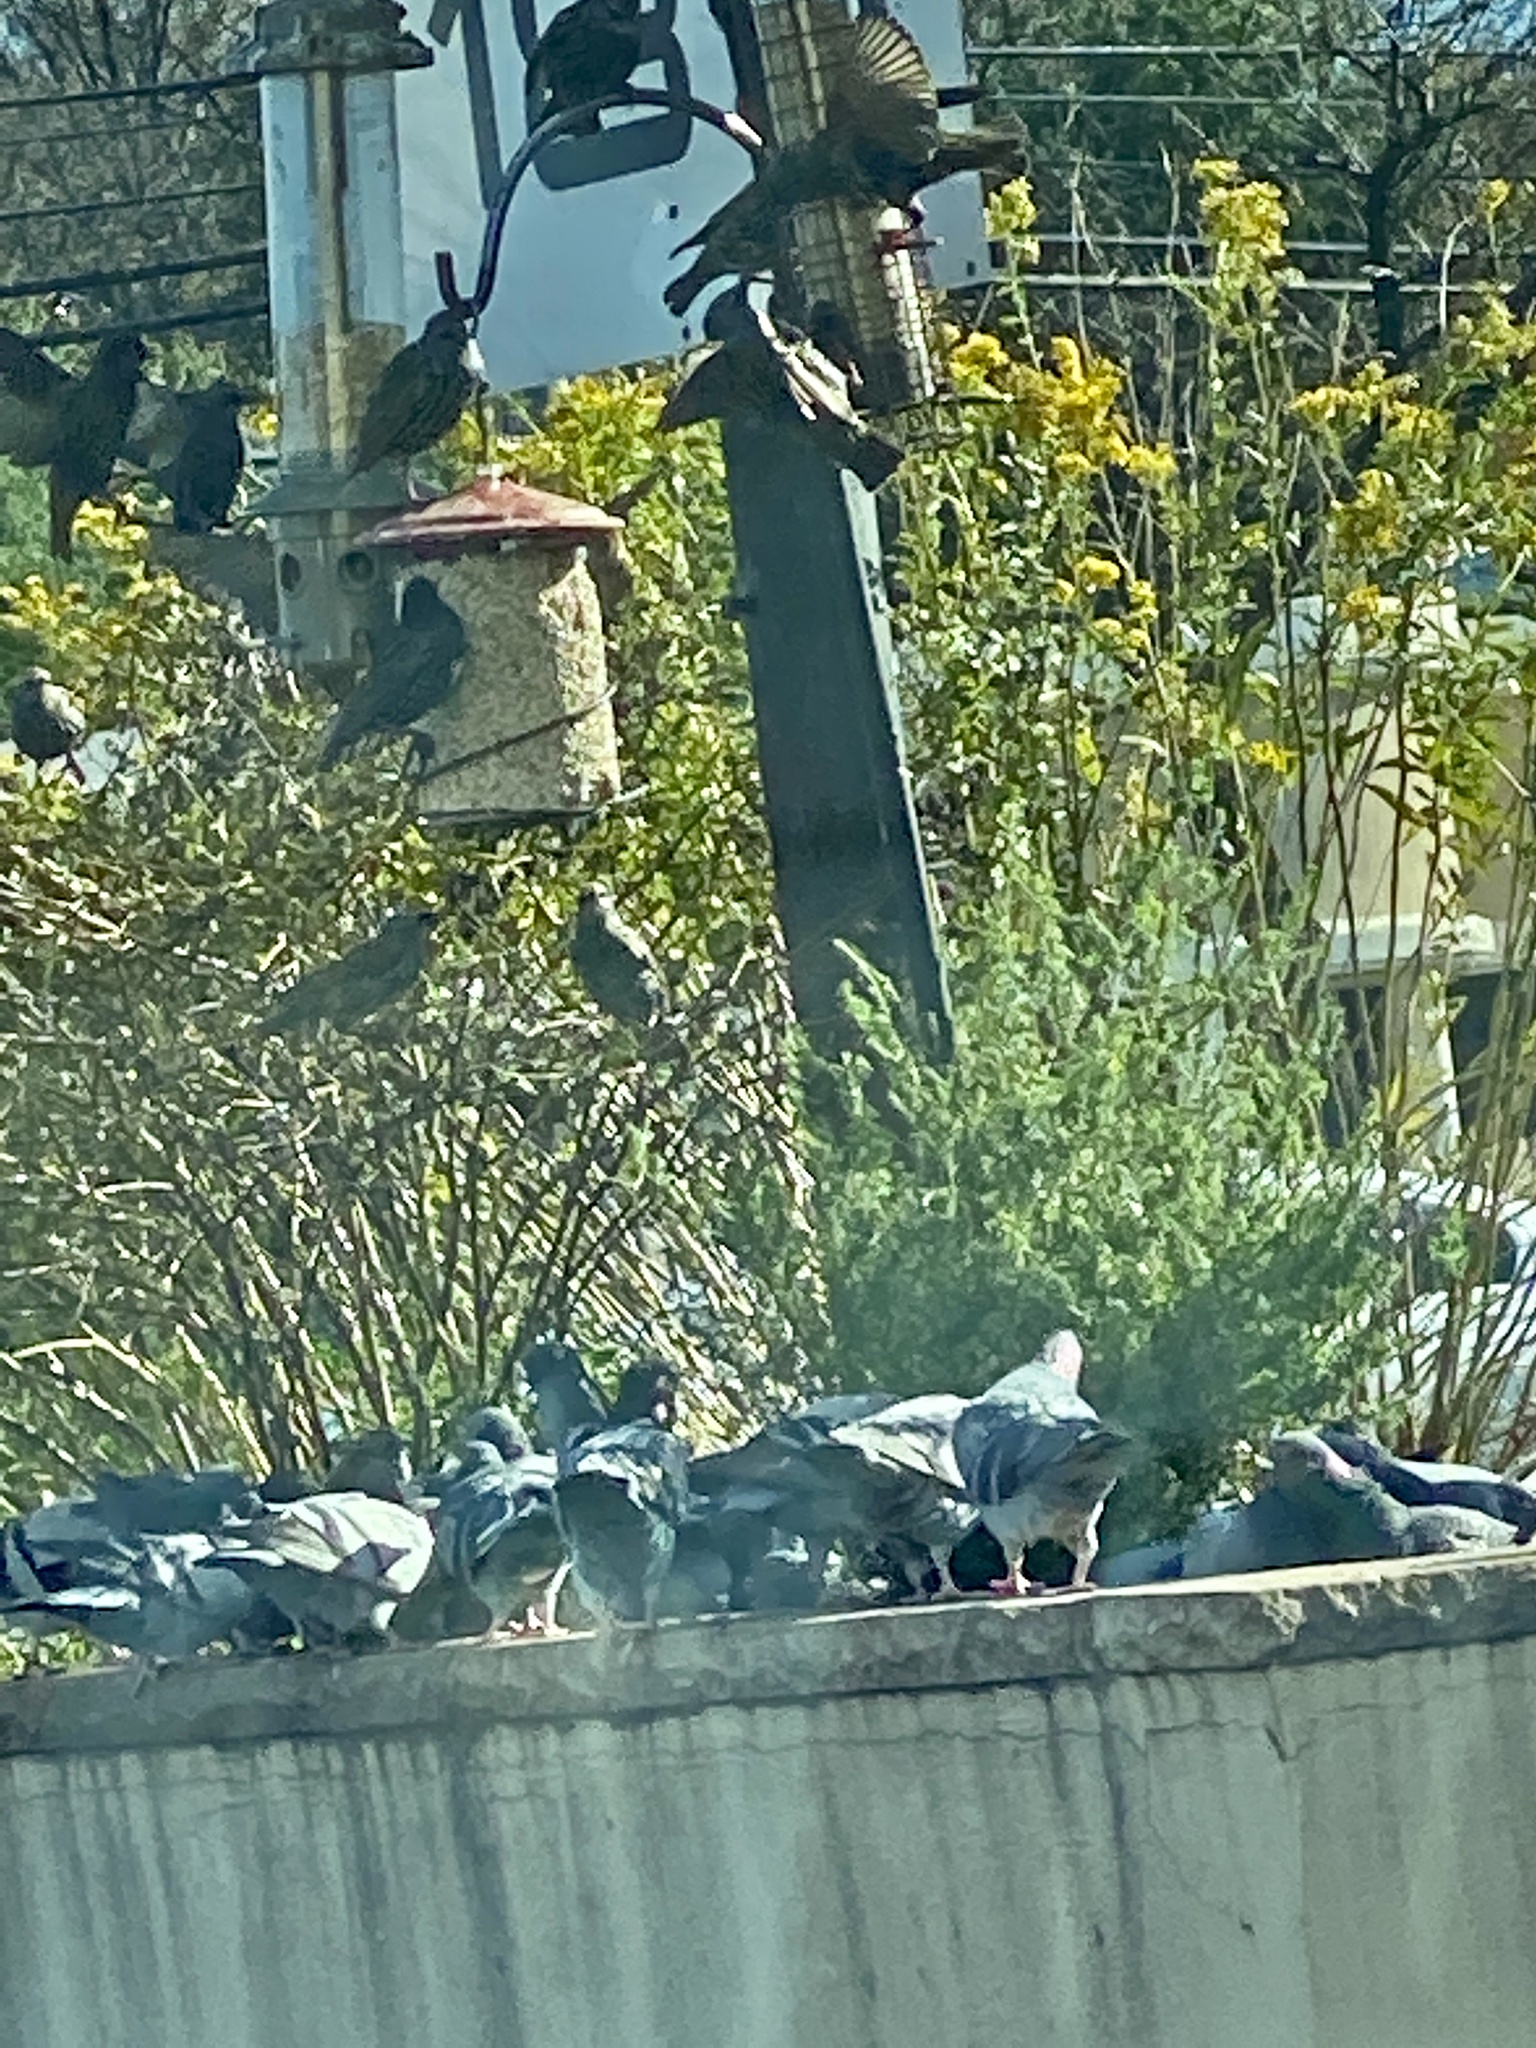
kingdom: Animalia
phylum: Chordata
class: Aves
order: Columbiformes
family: Columbidae
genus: Columba
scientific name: Columba livia
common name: Rock pigeon
